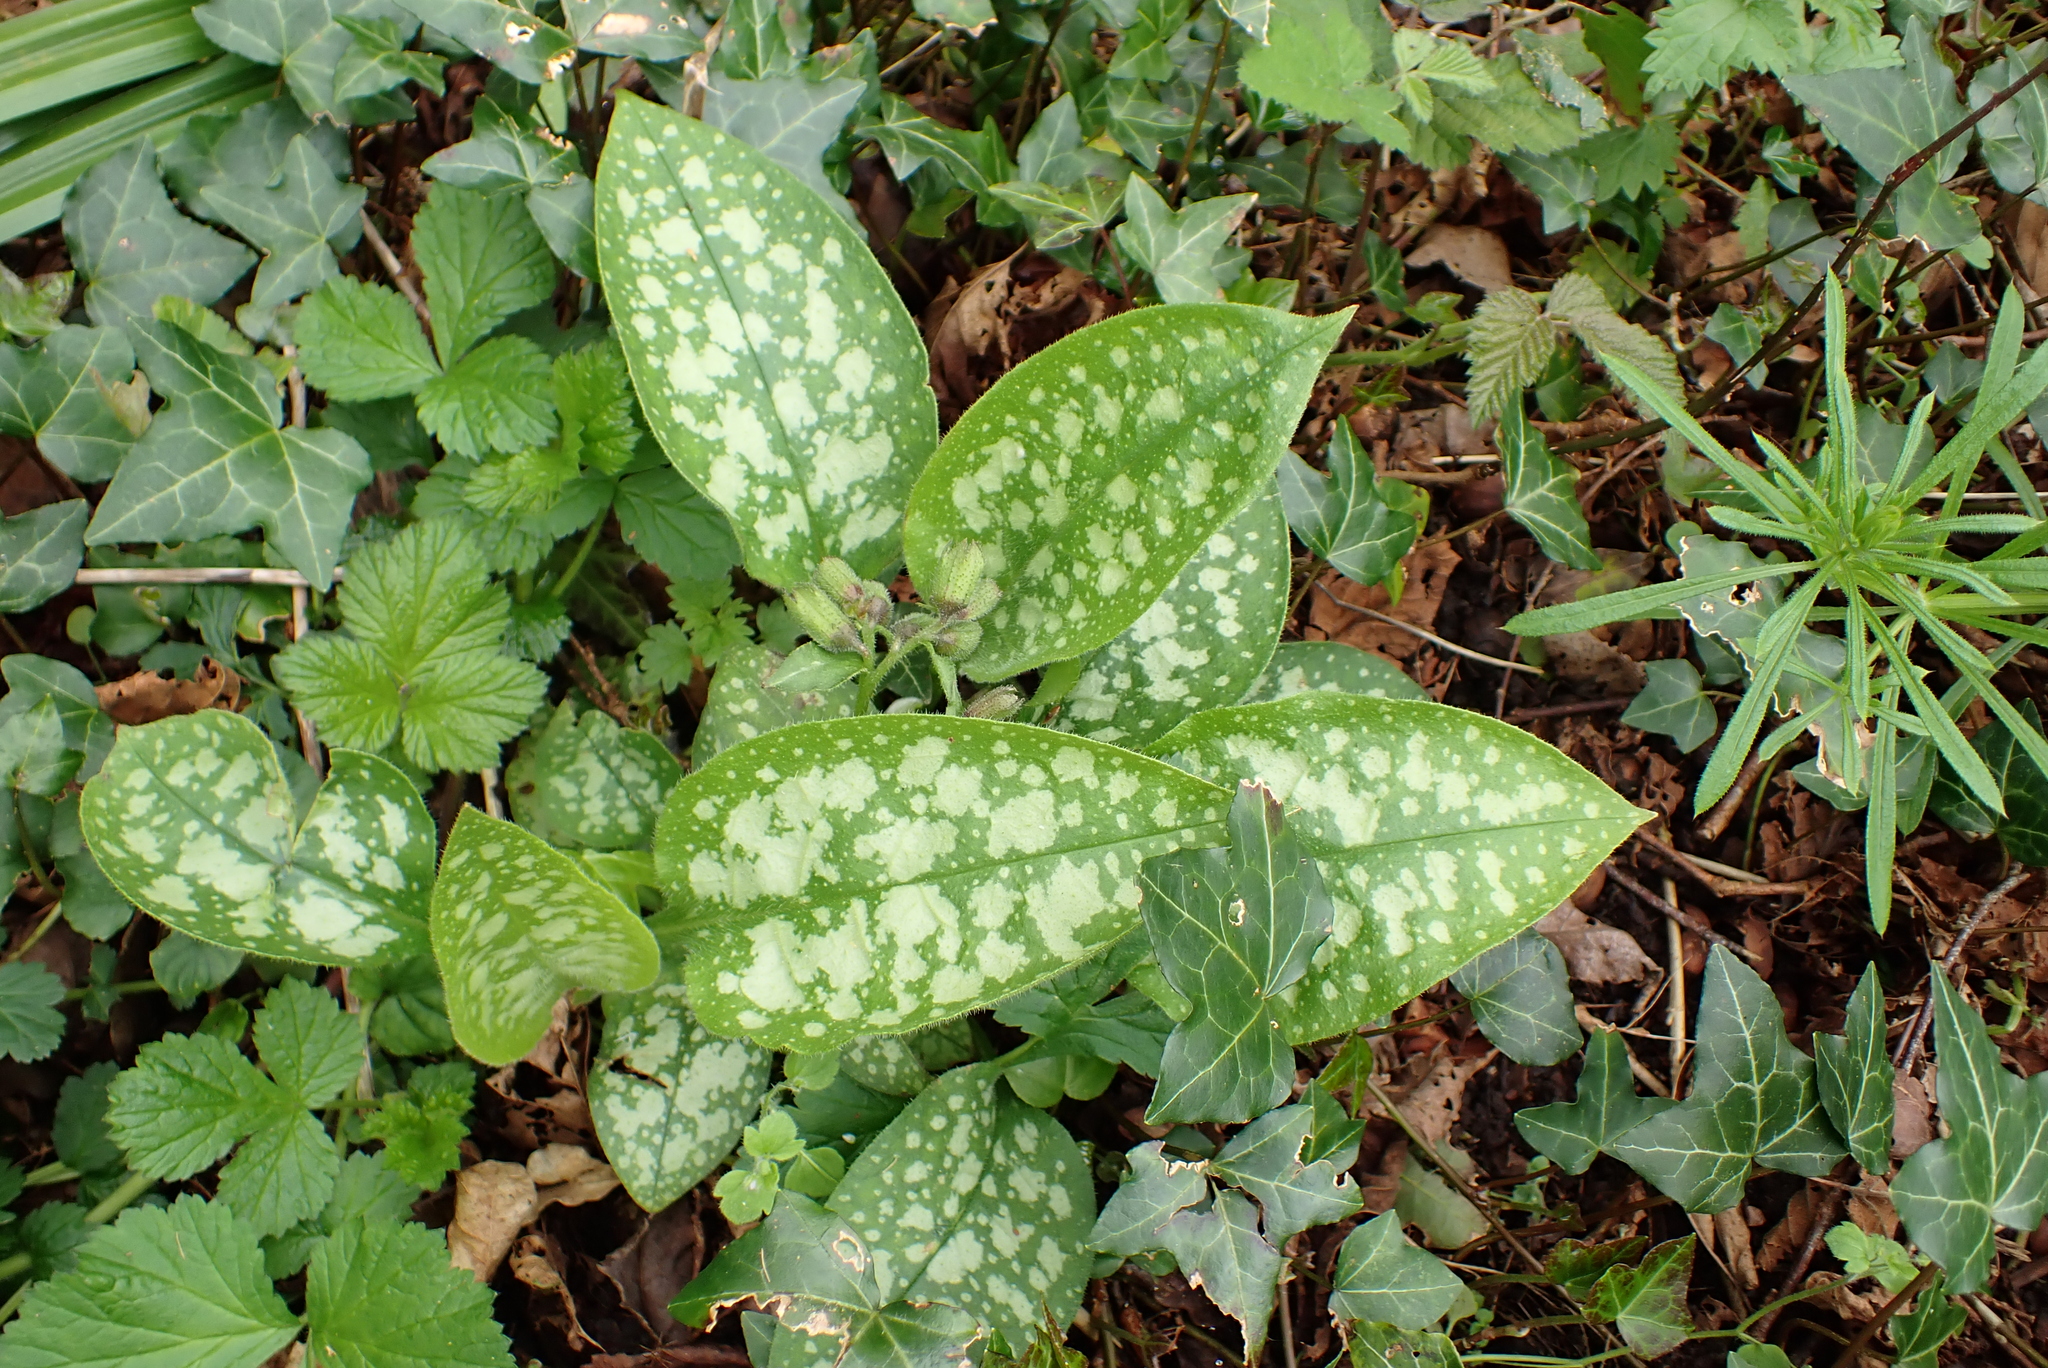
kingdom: Plantae
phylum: Tracheophyta
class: Magnoliopsida
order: Boraginales
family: Boraginaceae
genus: Pulmonaria
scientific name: Pulmonaria officinalis
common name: Lungwort
